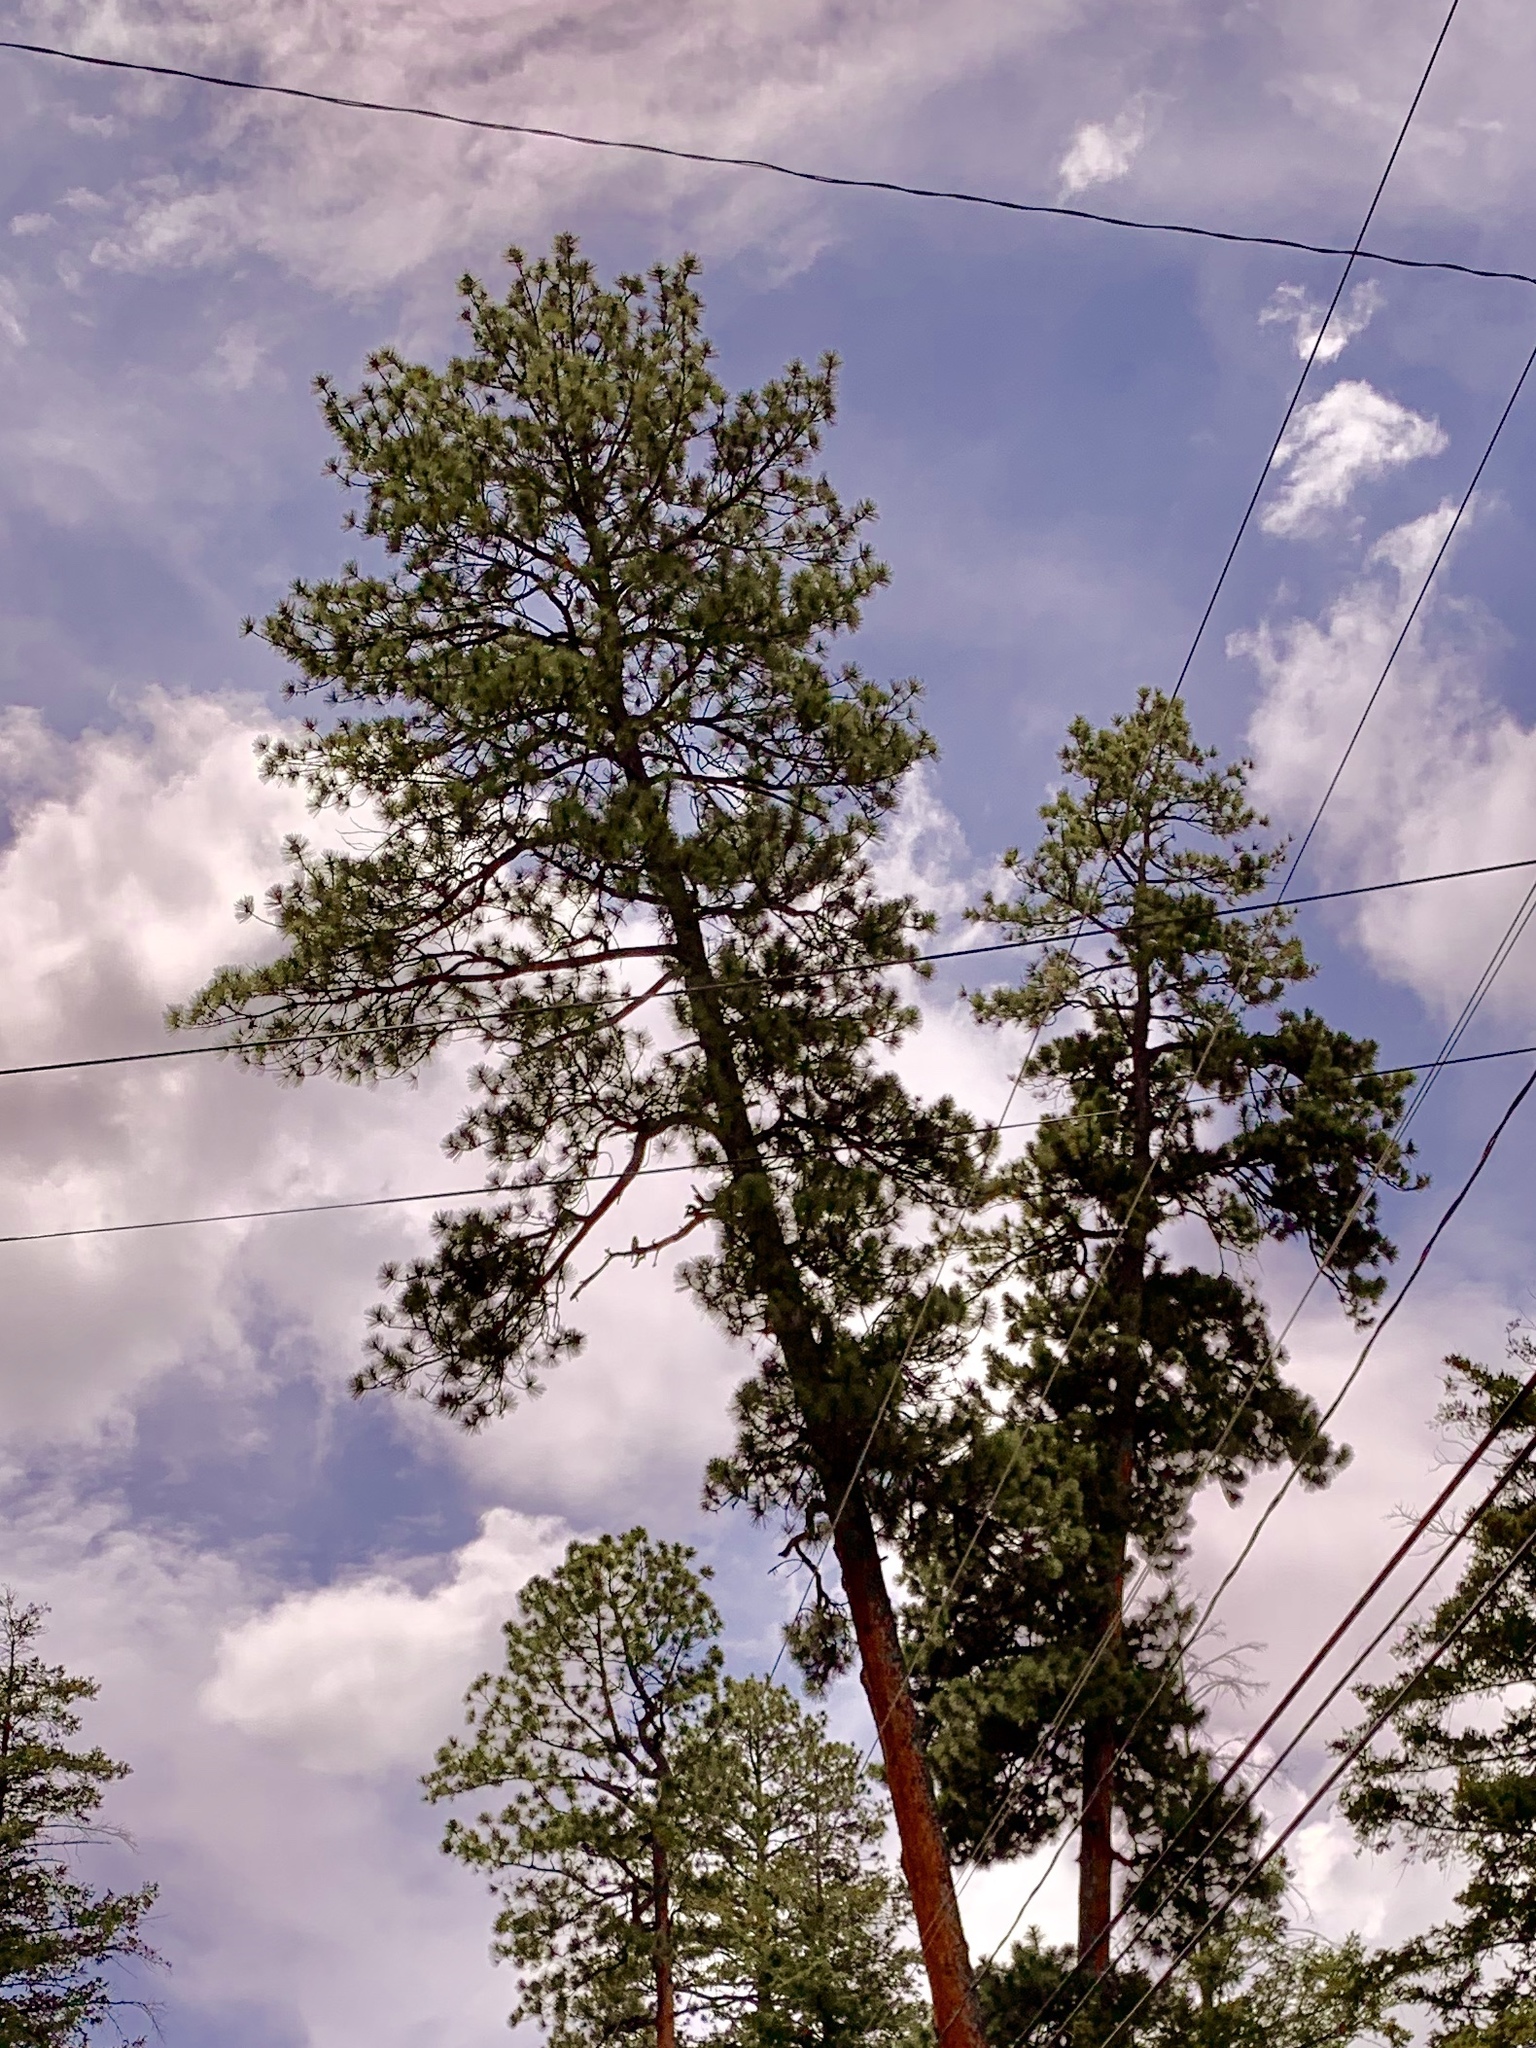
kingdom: Plantae
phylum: Tracheophyta
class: Pinopsida
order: Pinales
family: Pinaceae
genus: Pinus
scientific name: Pinus ponderosa
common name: Western yellow-pine
